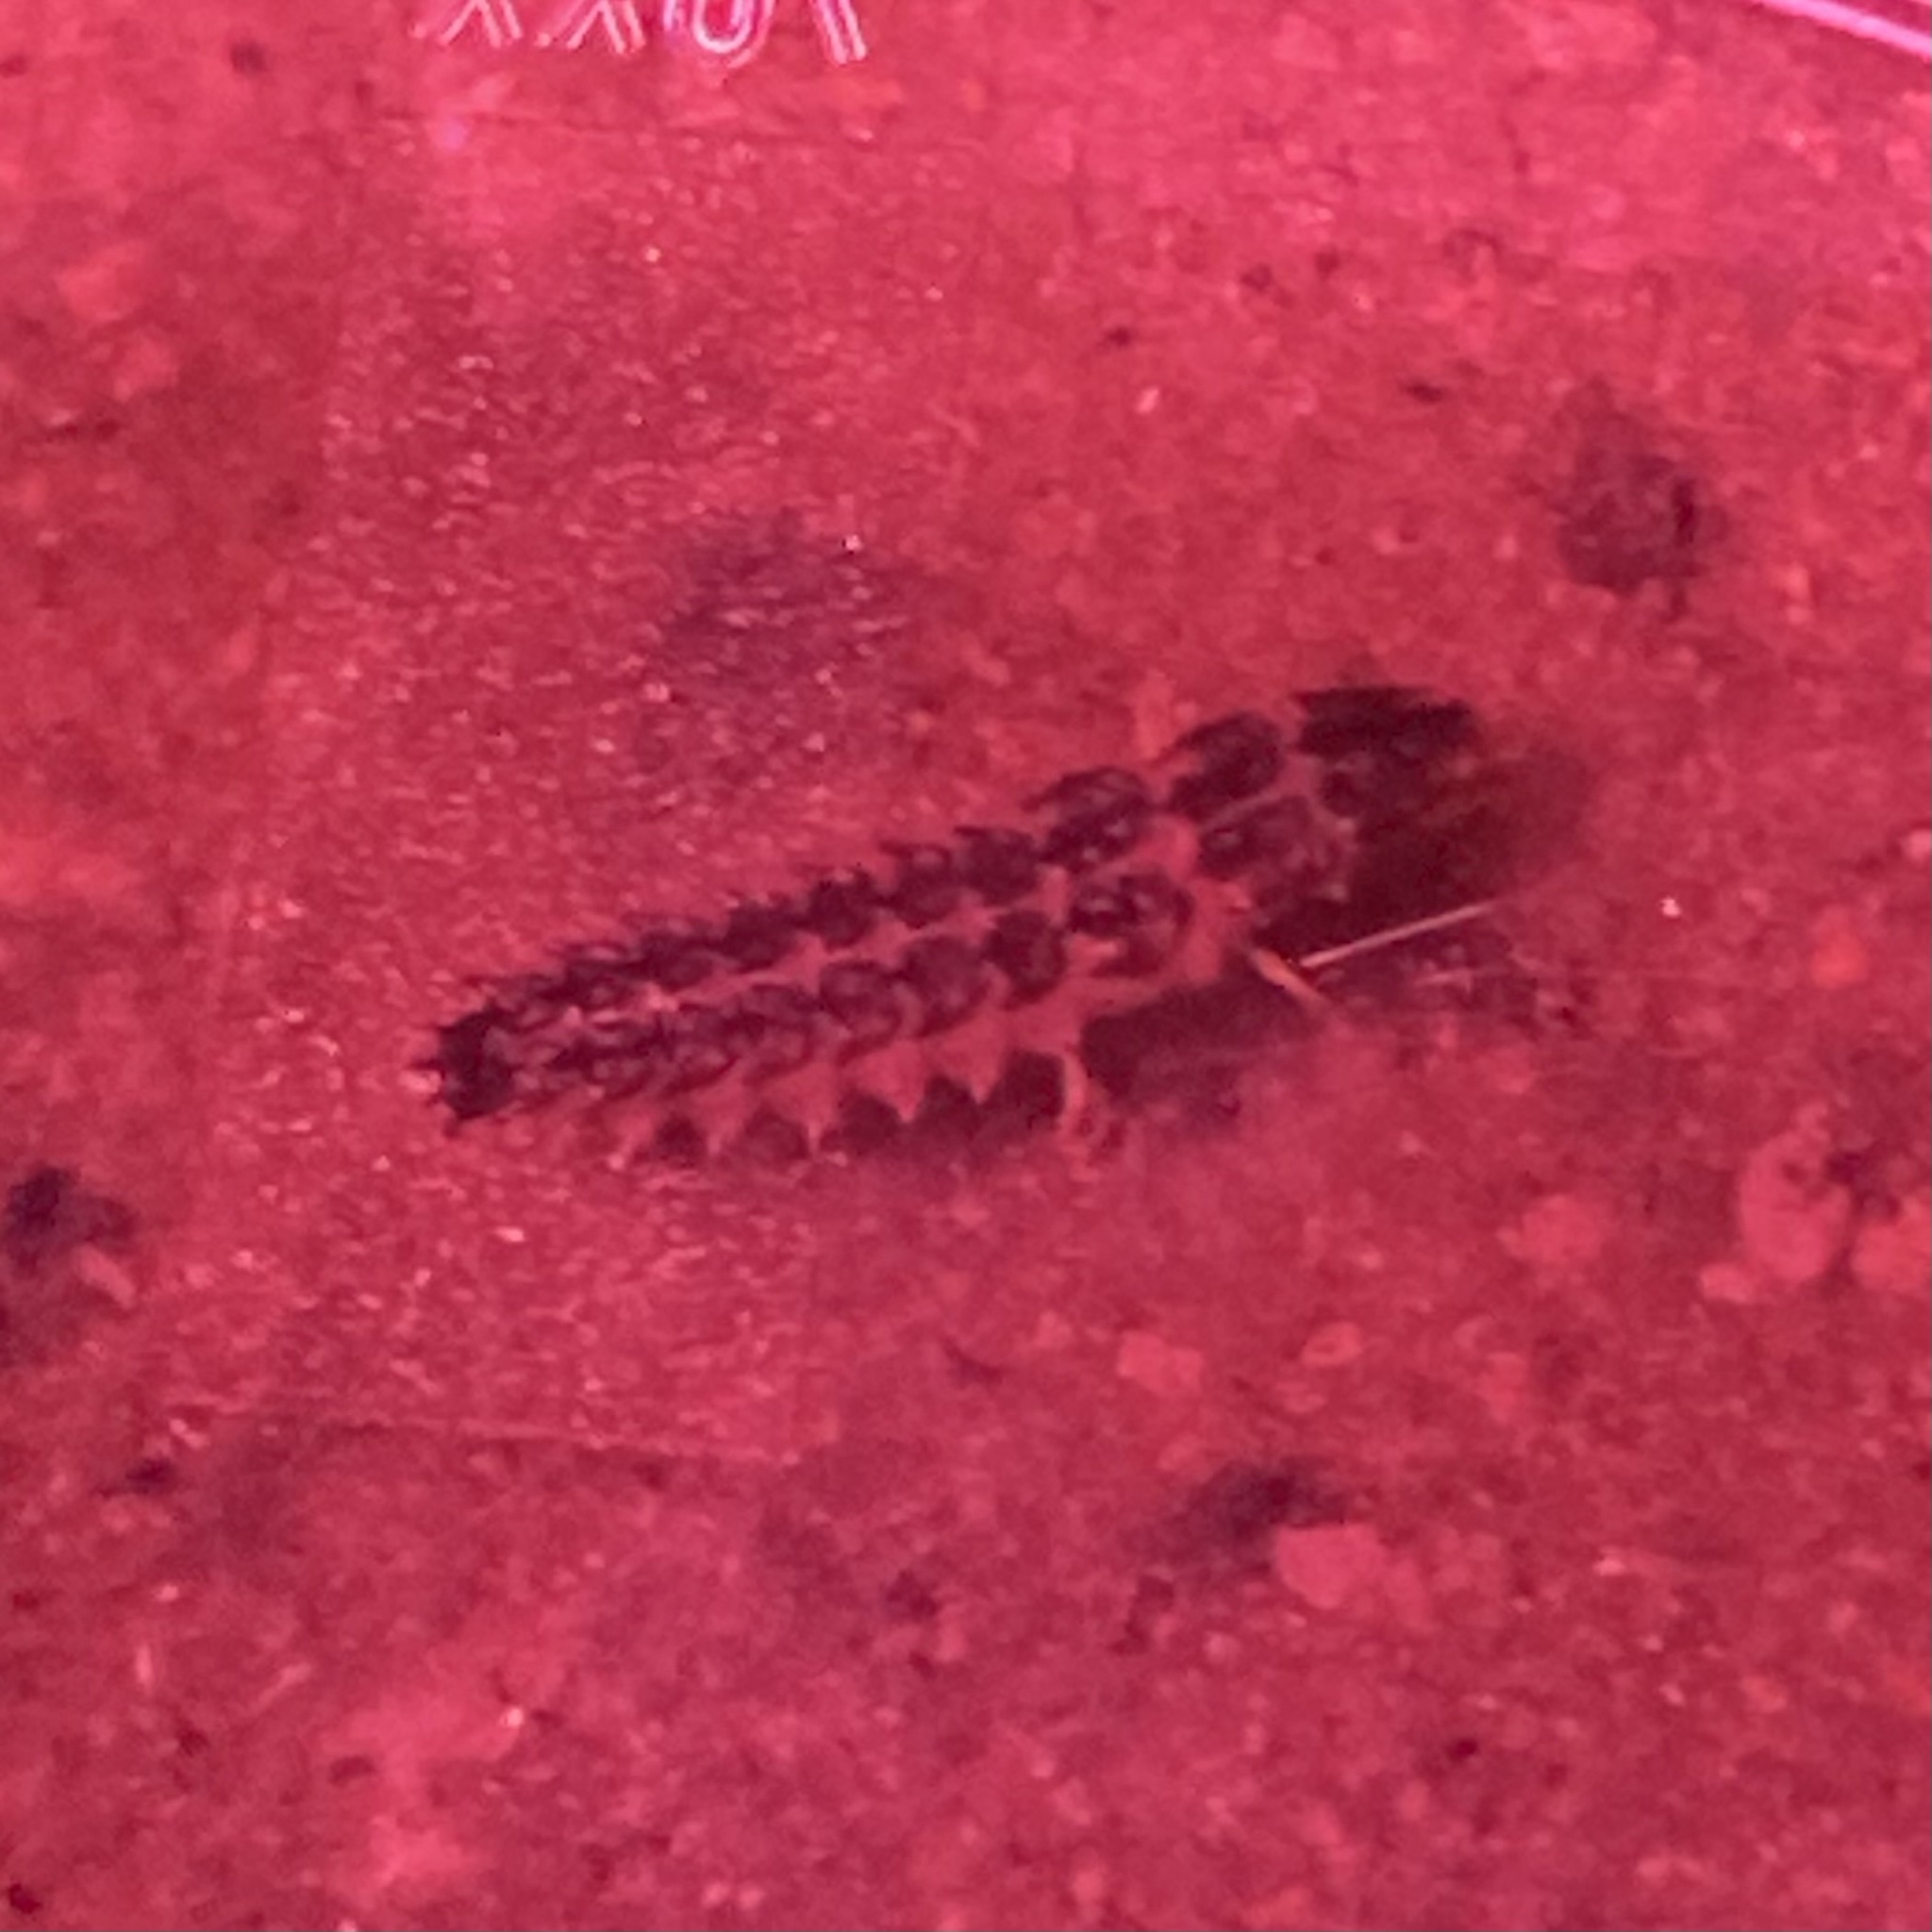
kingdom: Animalia
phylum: Arthropoda
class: Insecta
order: Coleoptera
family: Lampyridae
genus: Micronaspis
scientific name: Micronaspis floridana
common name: Florida intertidal firefly
